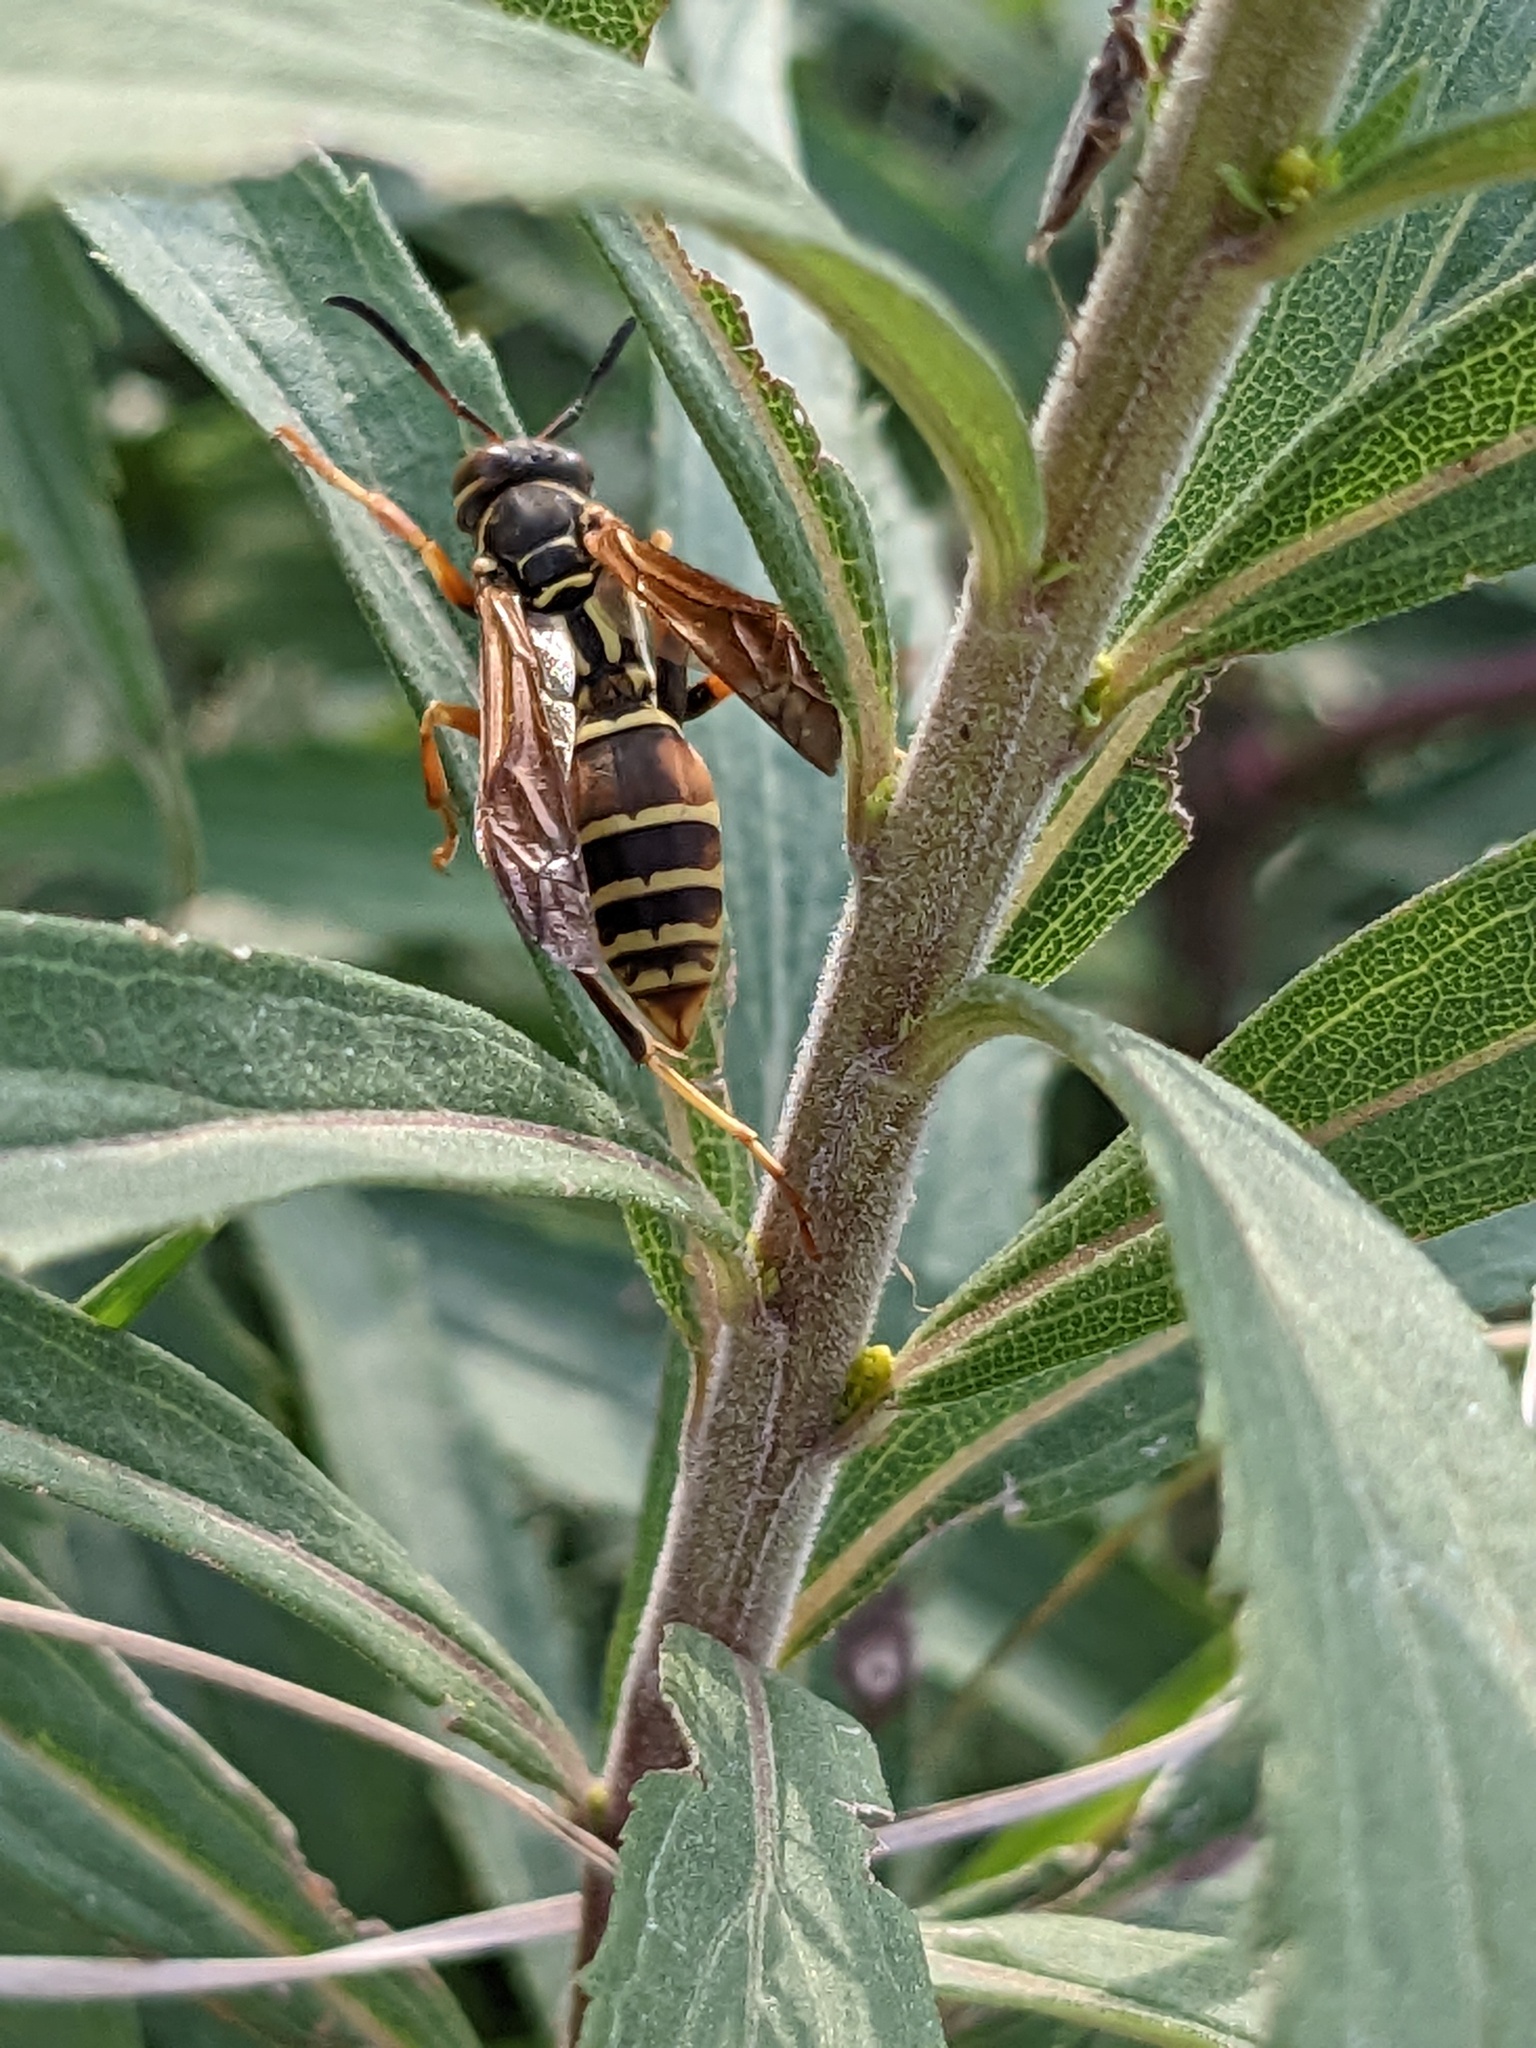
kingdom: Animalia
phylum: Arthropoda
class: Insecta
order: Hymenoptera
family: Eumenidae
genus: Polistes
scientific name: Polistes fuscatus
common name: Dark paper wasp
